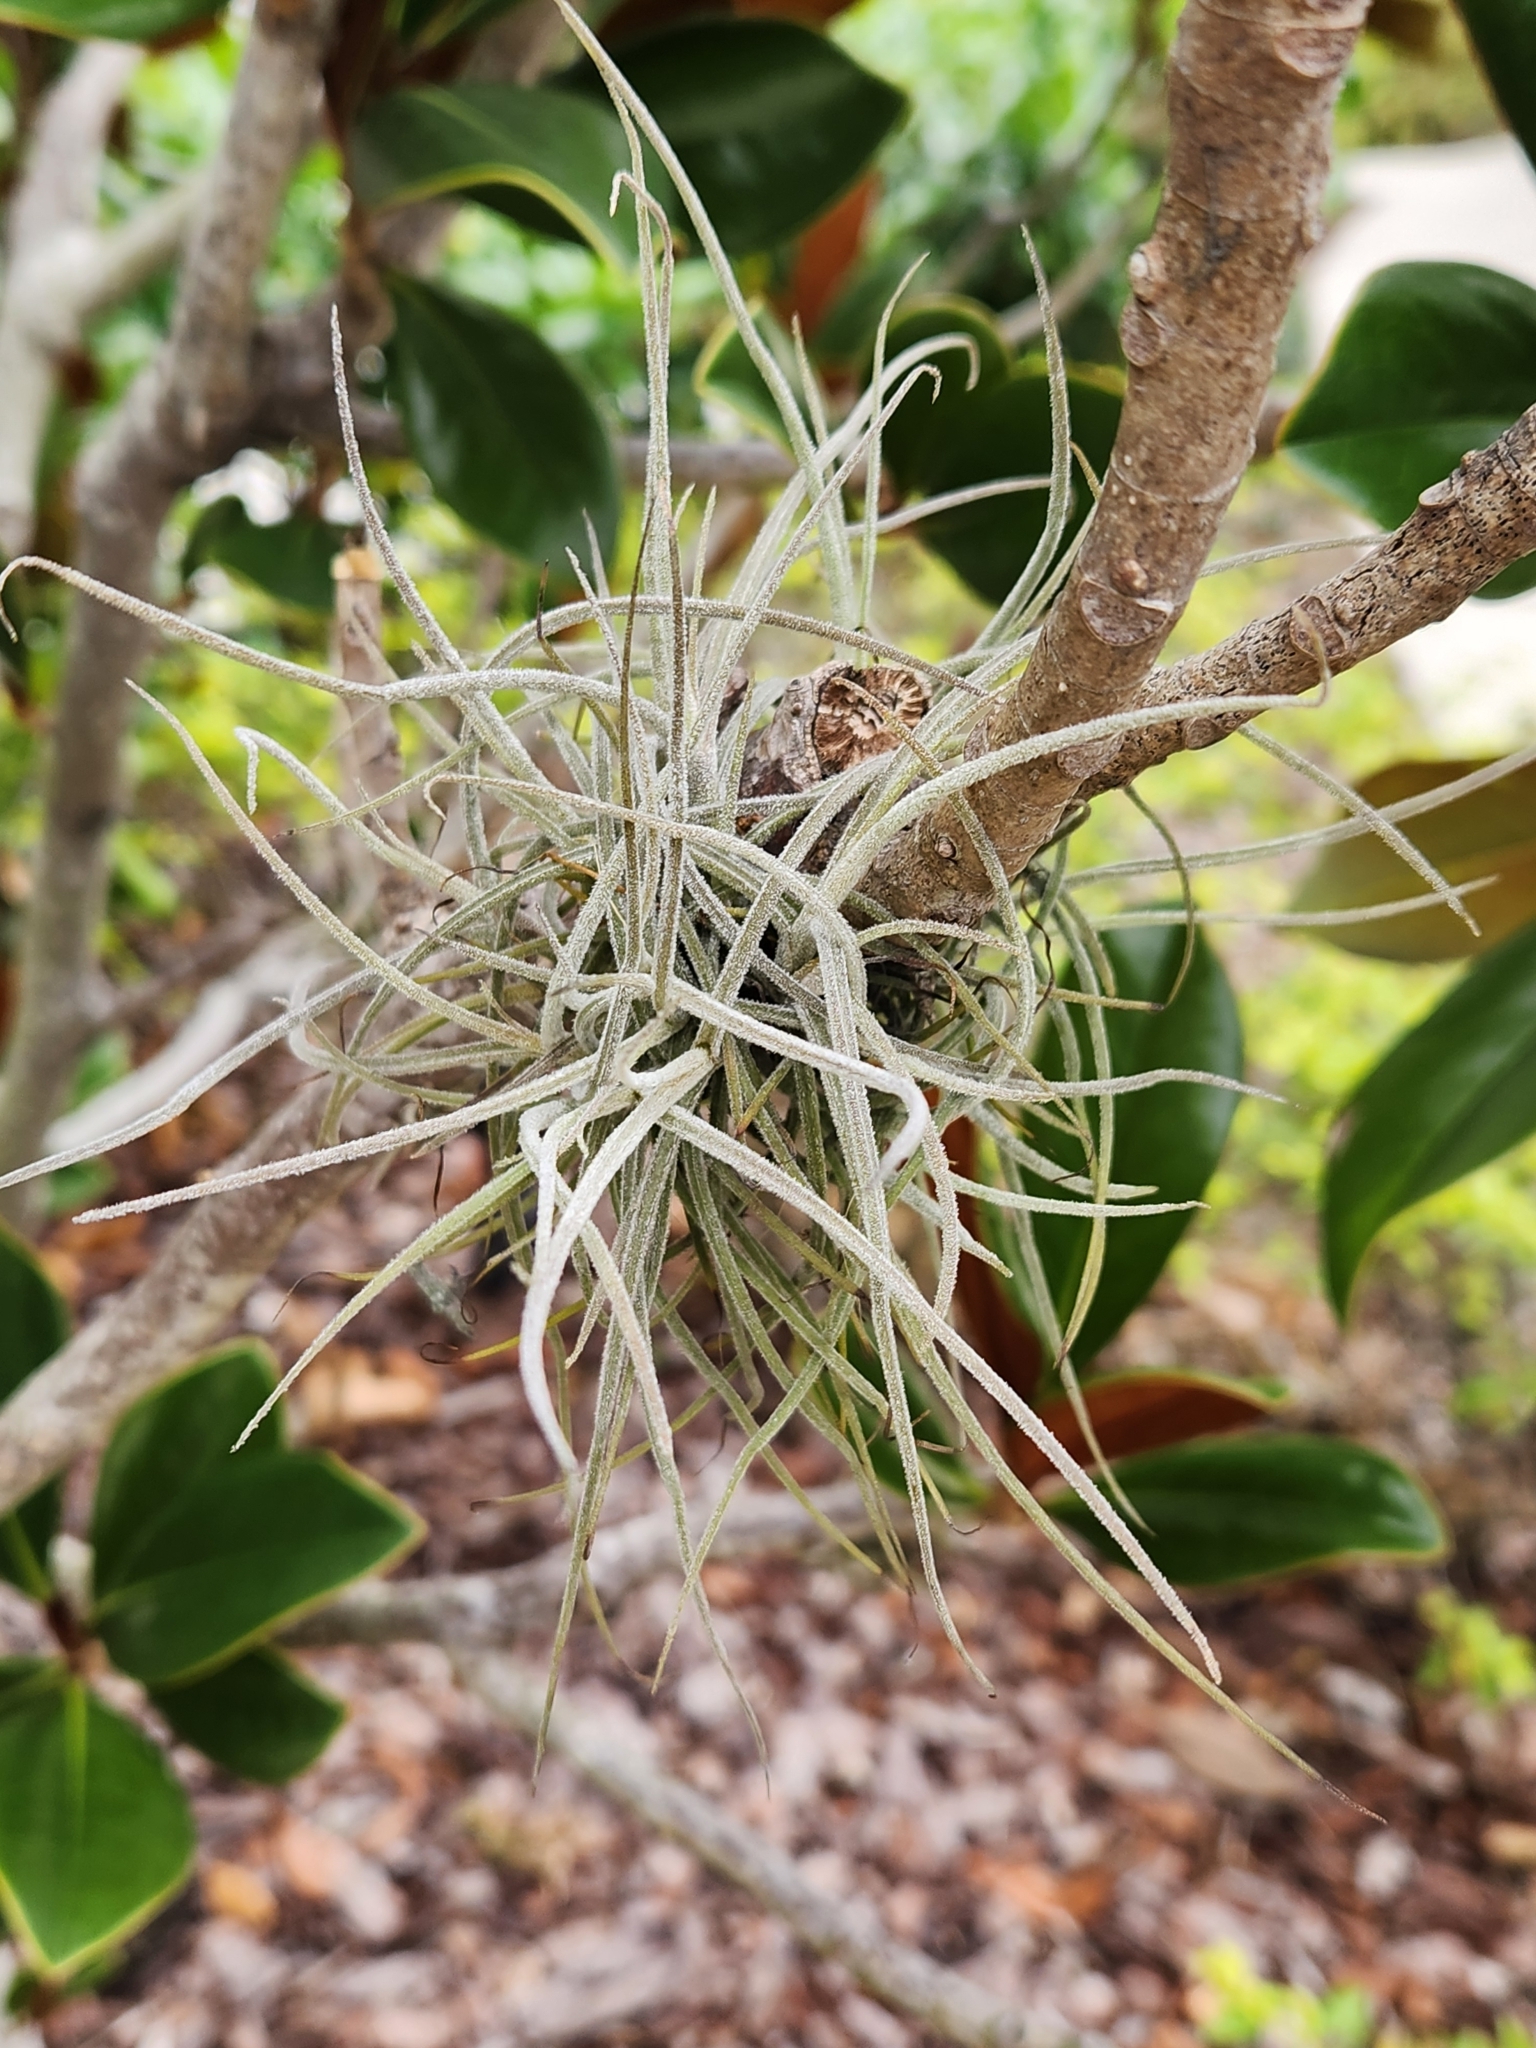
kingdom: Plantae
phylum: Tracheophyta
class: Liliopsida
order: Poales
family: Bromeliaceae
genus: Tillandsia
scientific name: Tillandsia recurvata
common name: Small ballmoss
